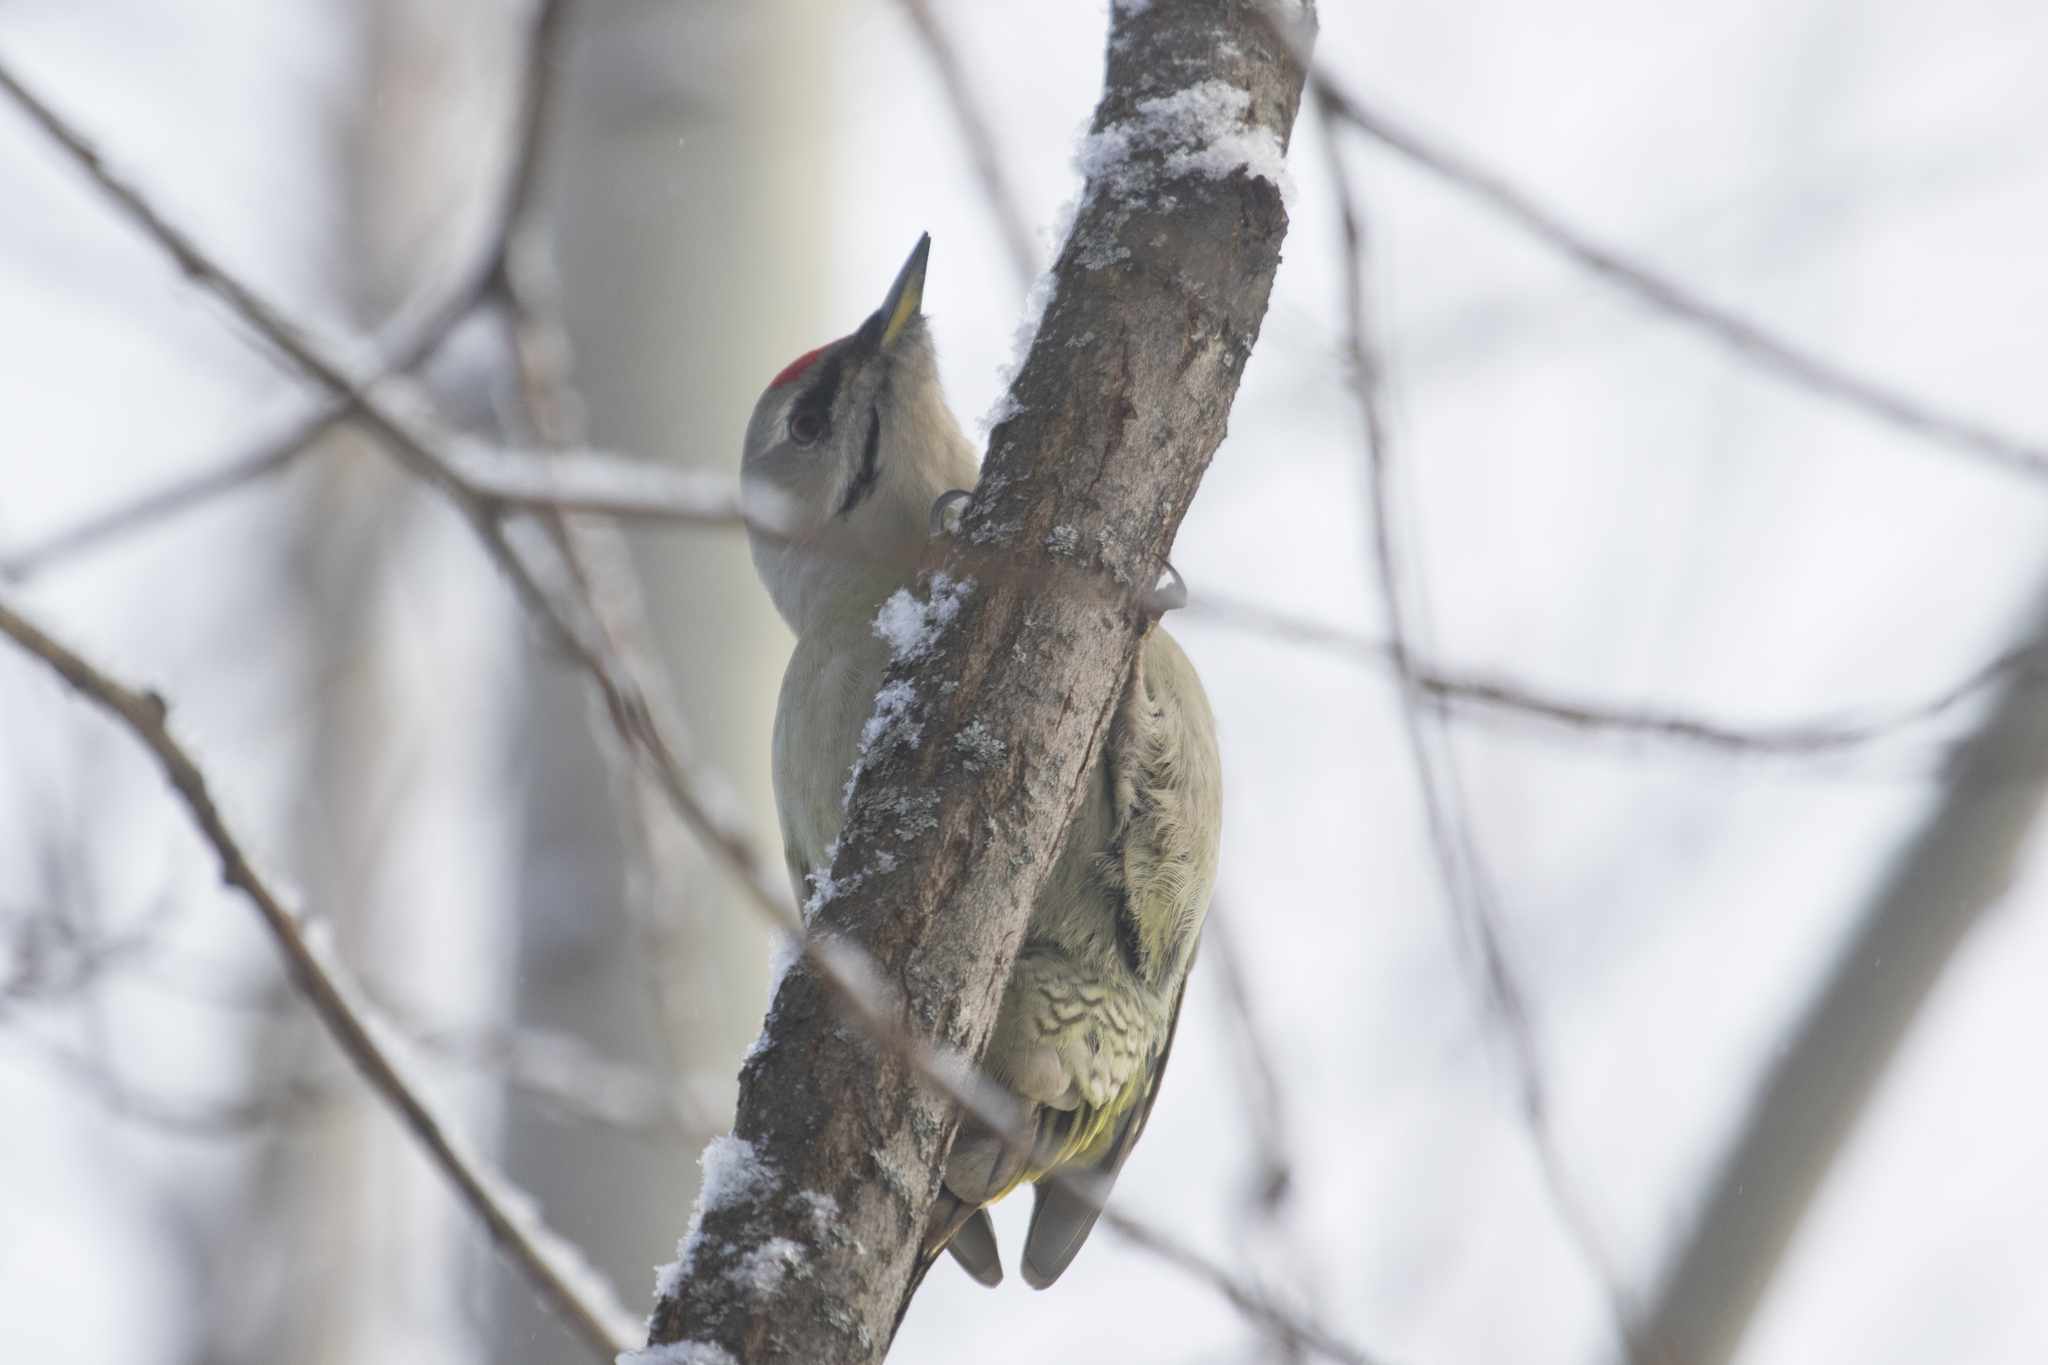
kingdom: Animalia
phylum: Chordata
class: Aves
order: Piciformes
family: Picidae
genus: Picus
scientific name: Picus canus
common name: Grey-headed woodpecker
